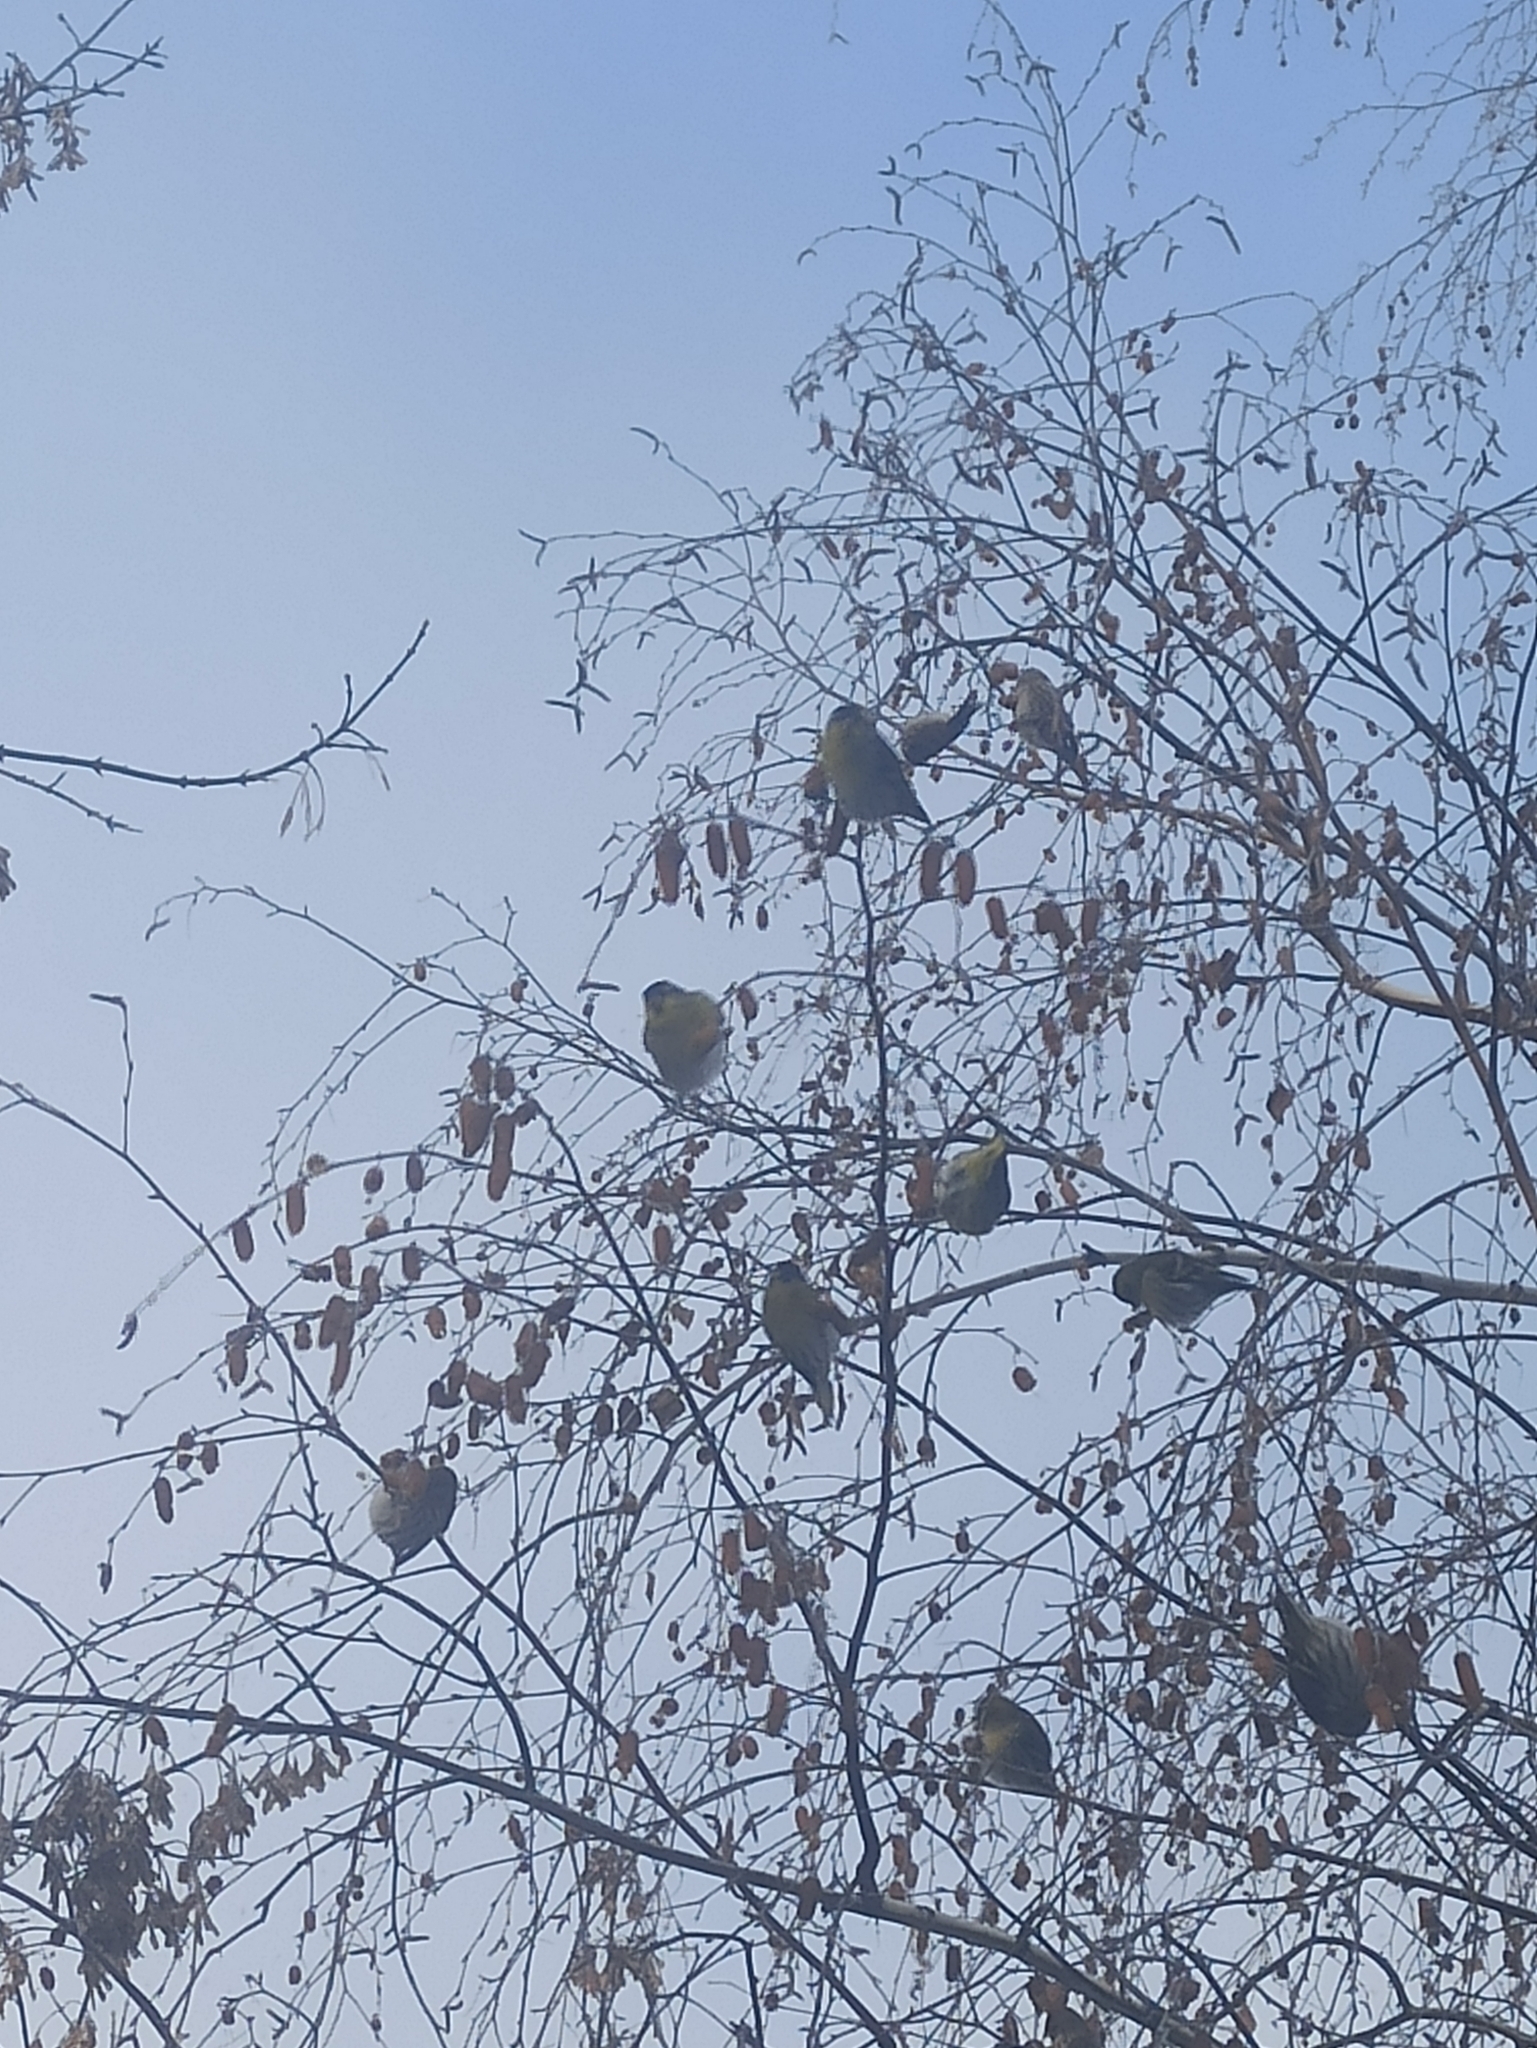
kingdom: Animalia
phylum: Chordata
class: Aves
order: Passeriformes
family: Fringillidae
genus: Spinus
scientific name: Spinus spinus
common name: Eurasian siskin
